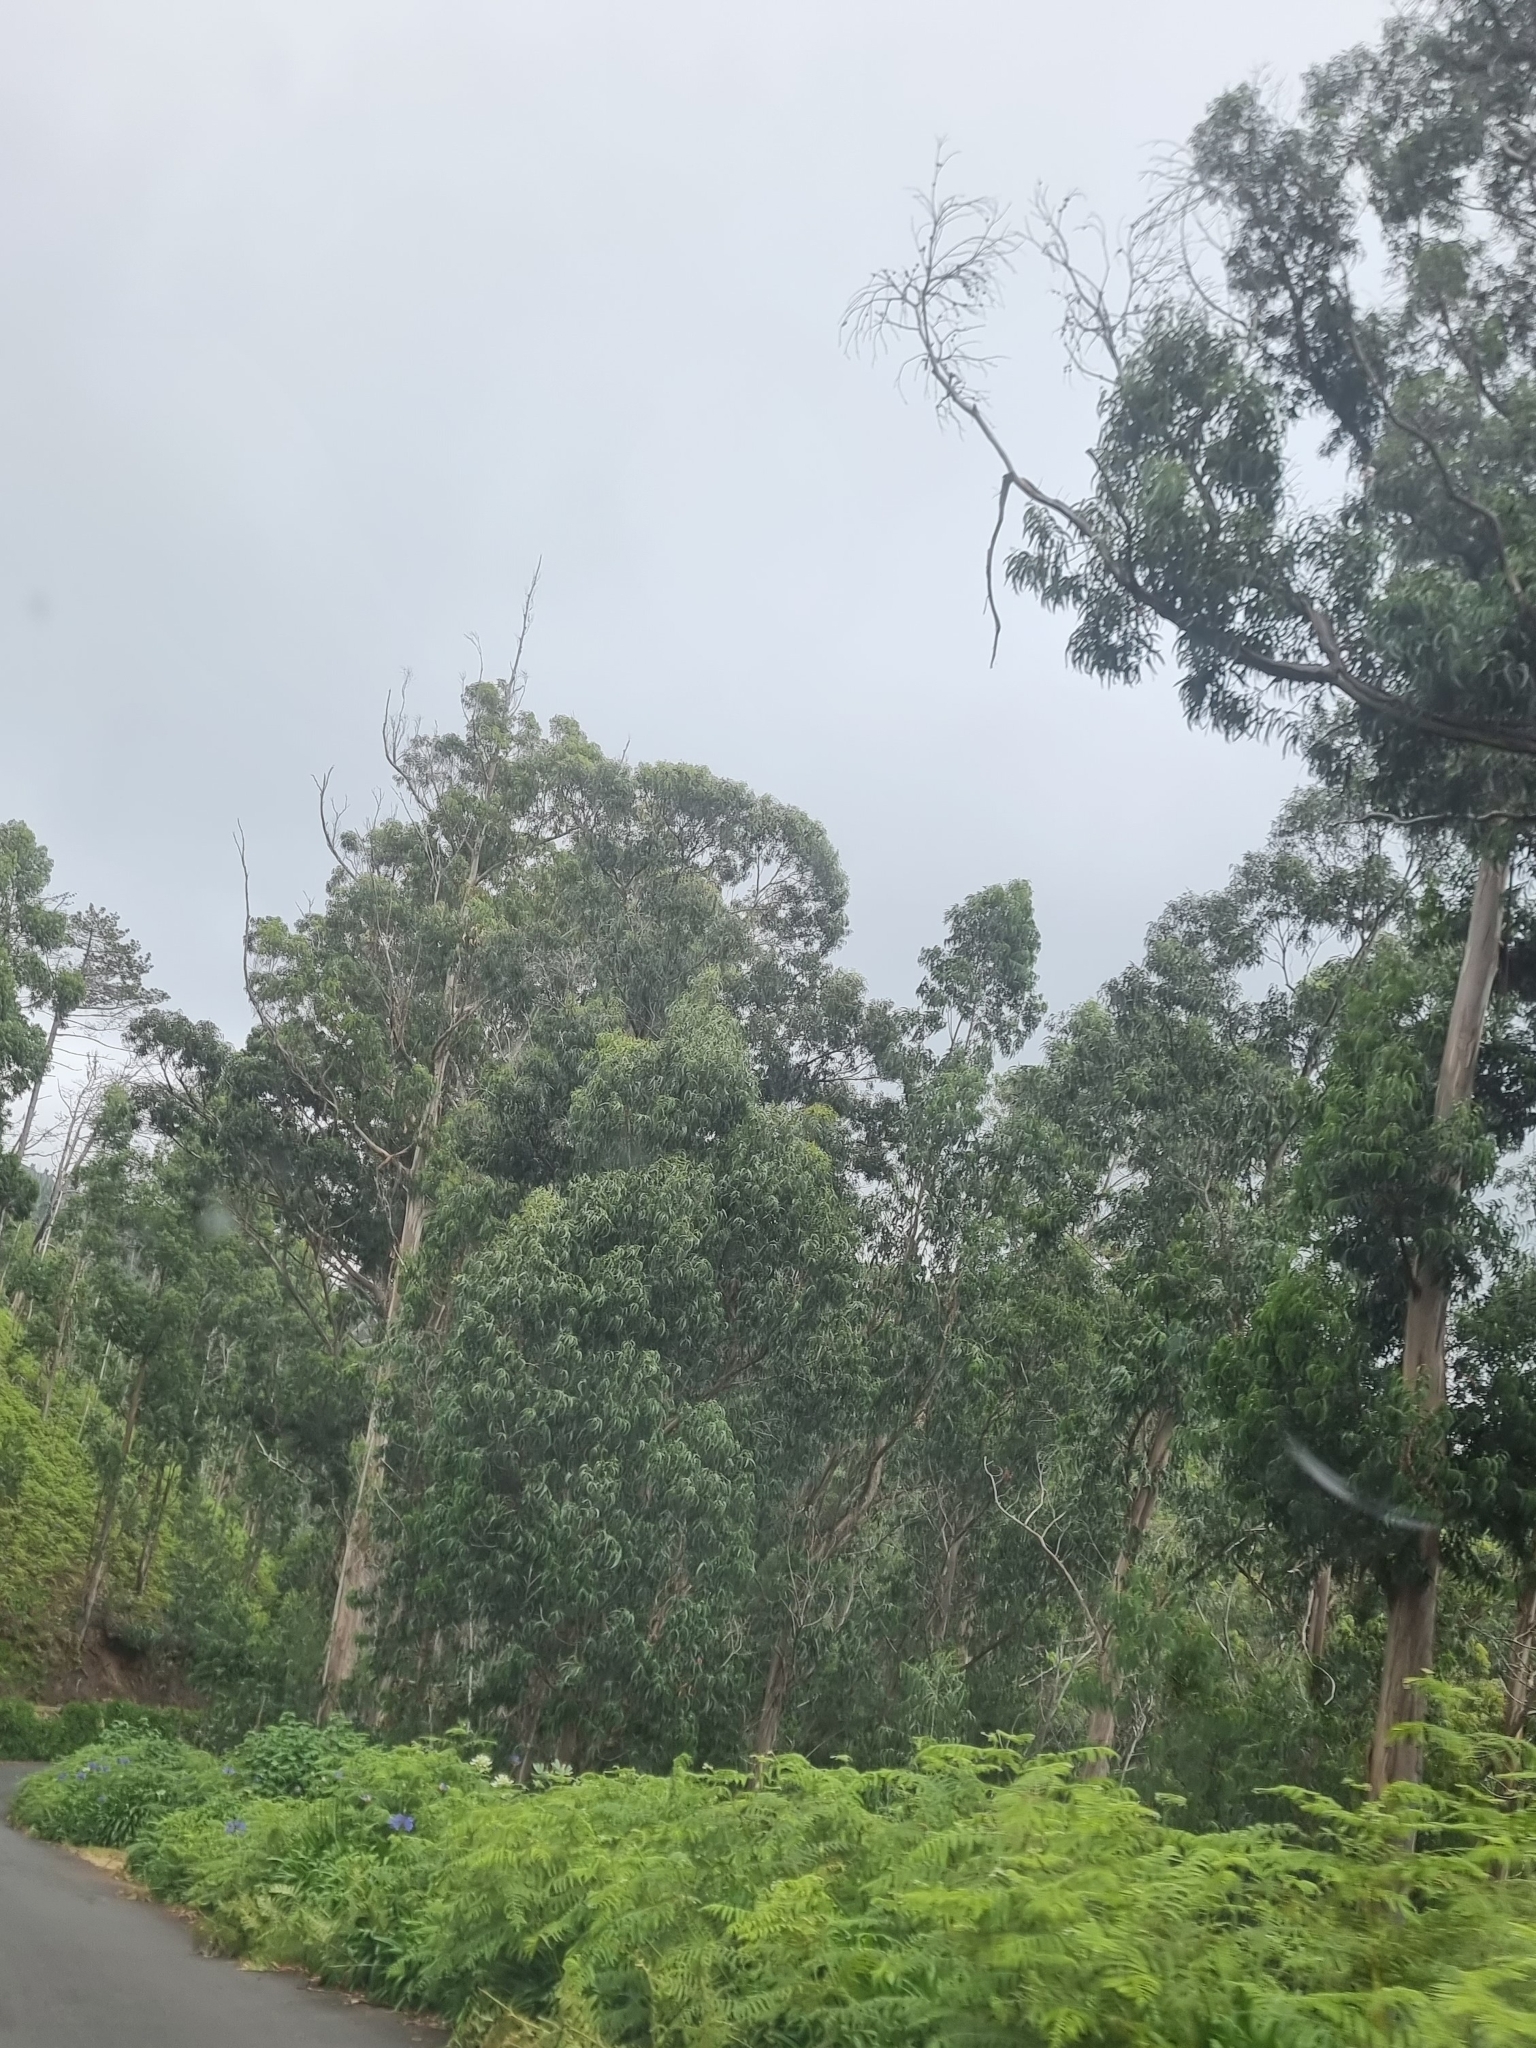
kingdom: Plantae
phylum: Tracheophyta
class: Magnoliopsida
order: Myrtales
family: Myrtaceae
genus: Eucalyptus
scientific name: Eucalyptus globulus
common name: Southern blue-gum
